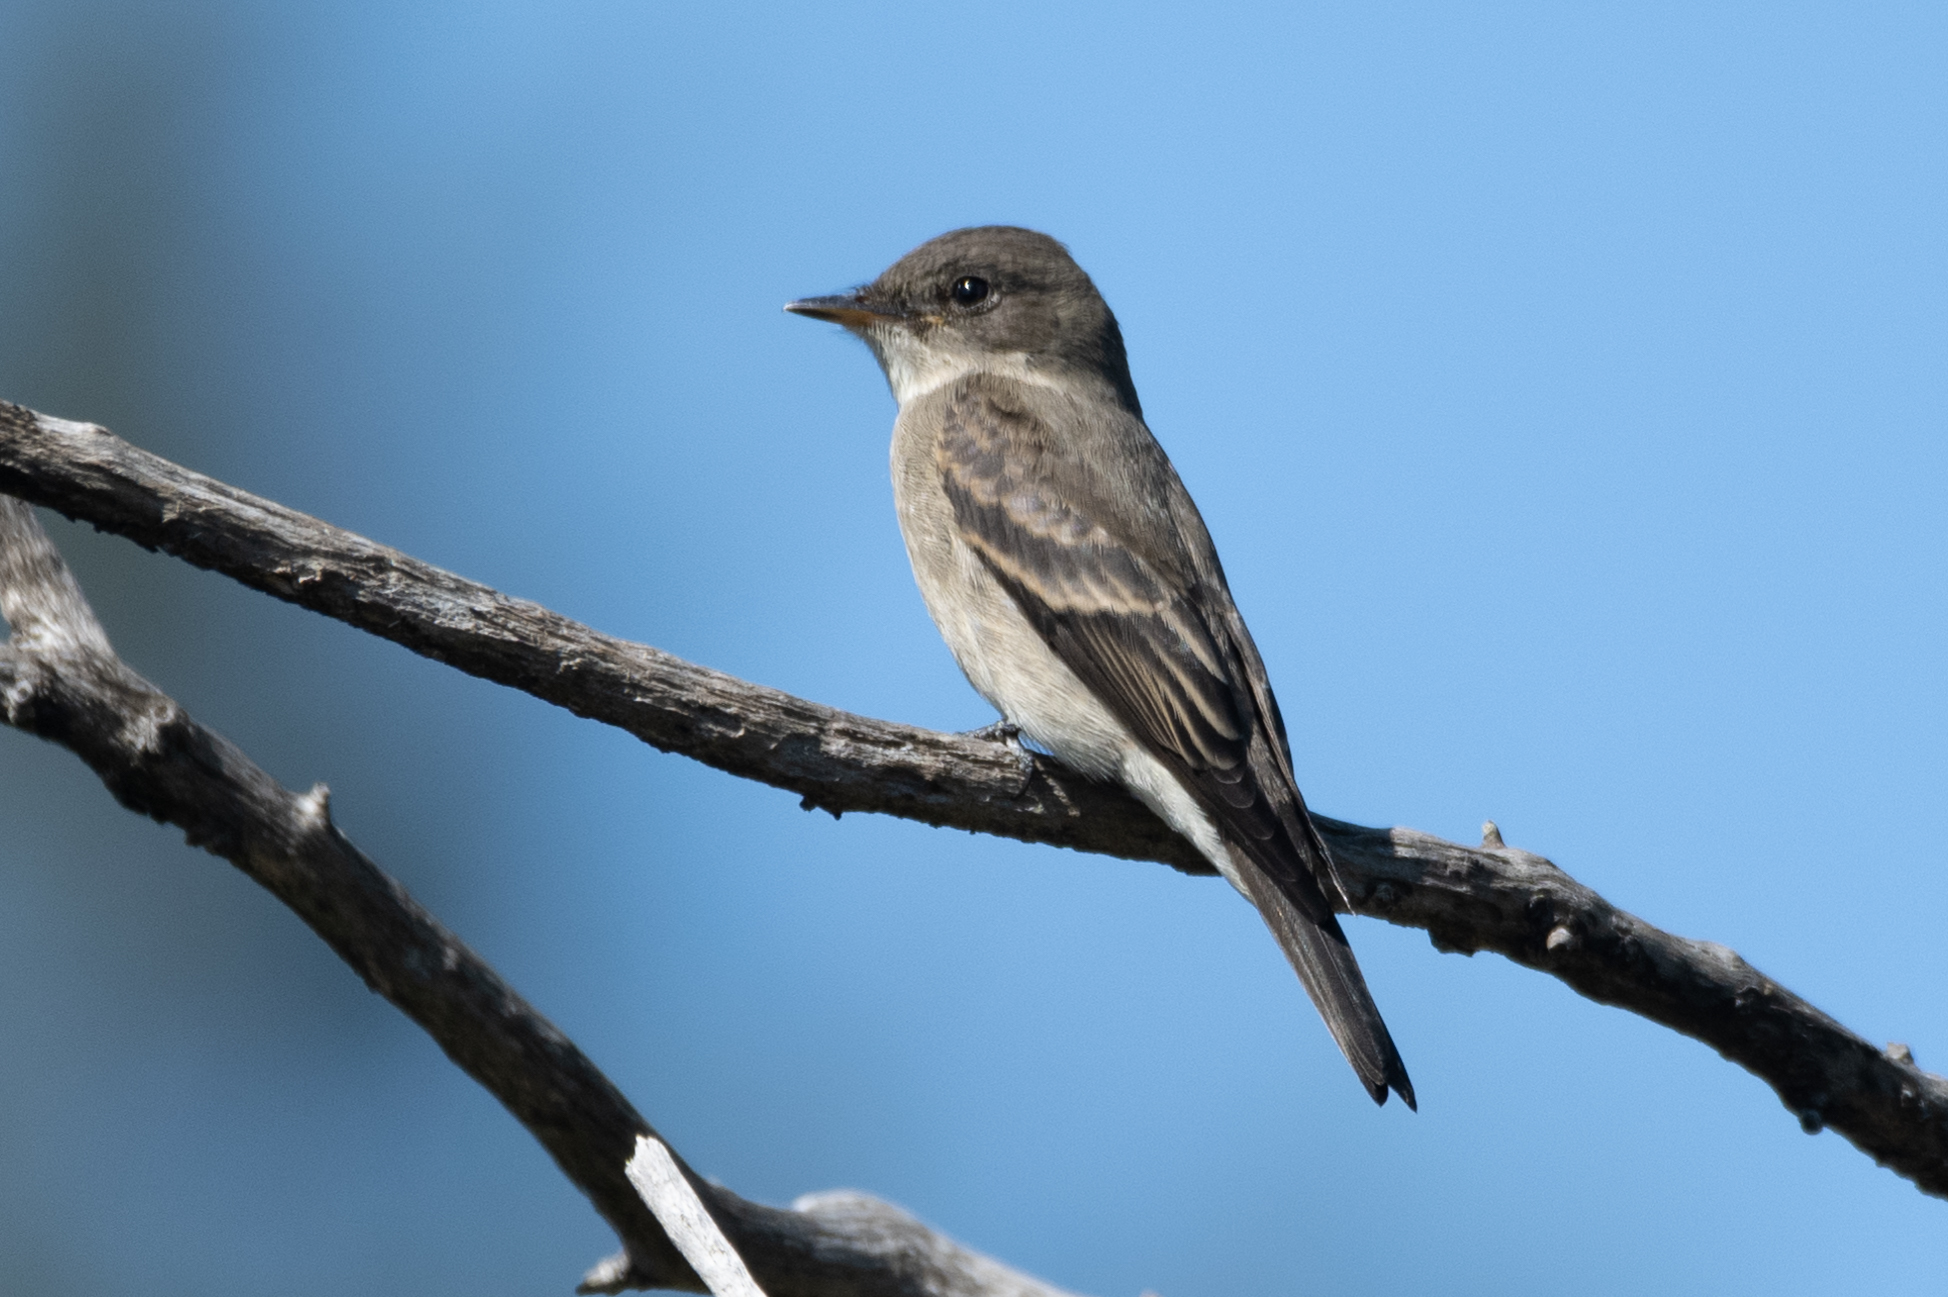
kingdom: Animalia
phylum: Chordata
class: Aves
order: Passeriformes
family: Tyrannidae
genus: Contopus
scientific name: Contopus sordidulus
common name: Western wood-pewee
